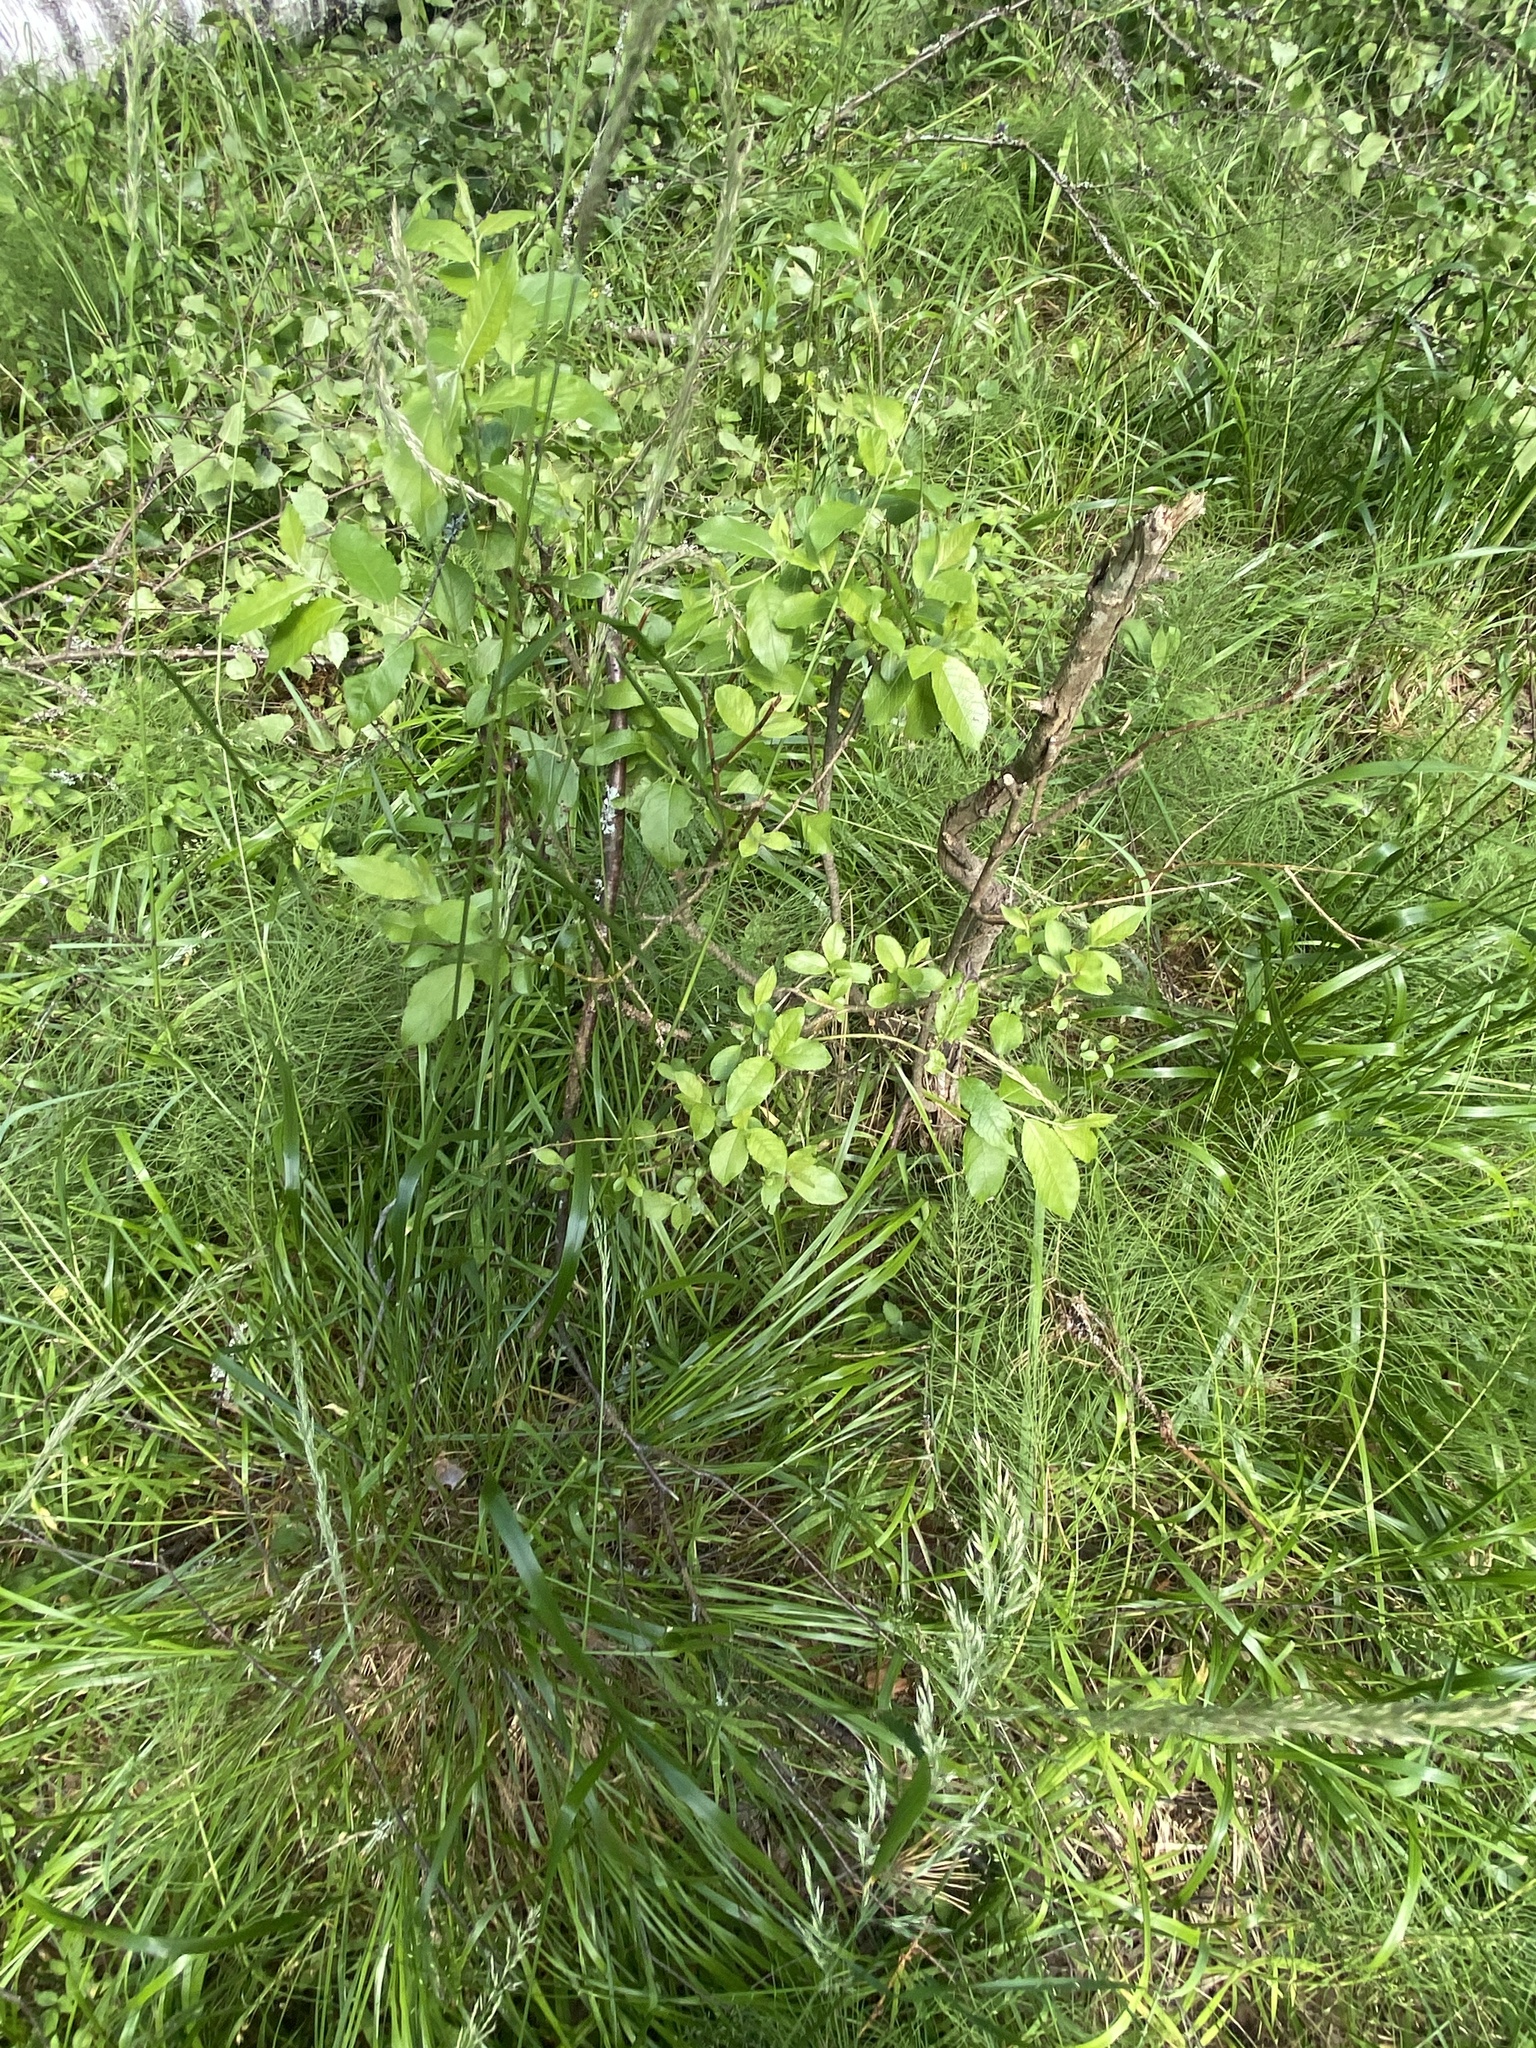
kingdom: Plantae
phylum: Tracheophyta
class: Liliopsida
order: Poales
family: Poaceae
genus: Calamagrostis
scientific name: Calamagrostis arundinacea
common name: Metskastik
